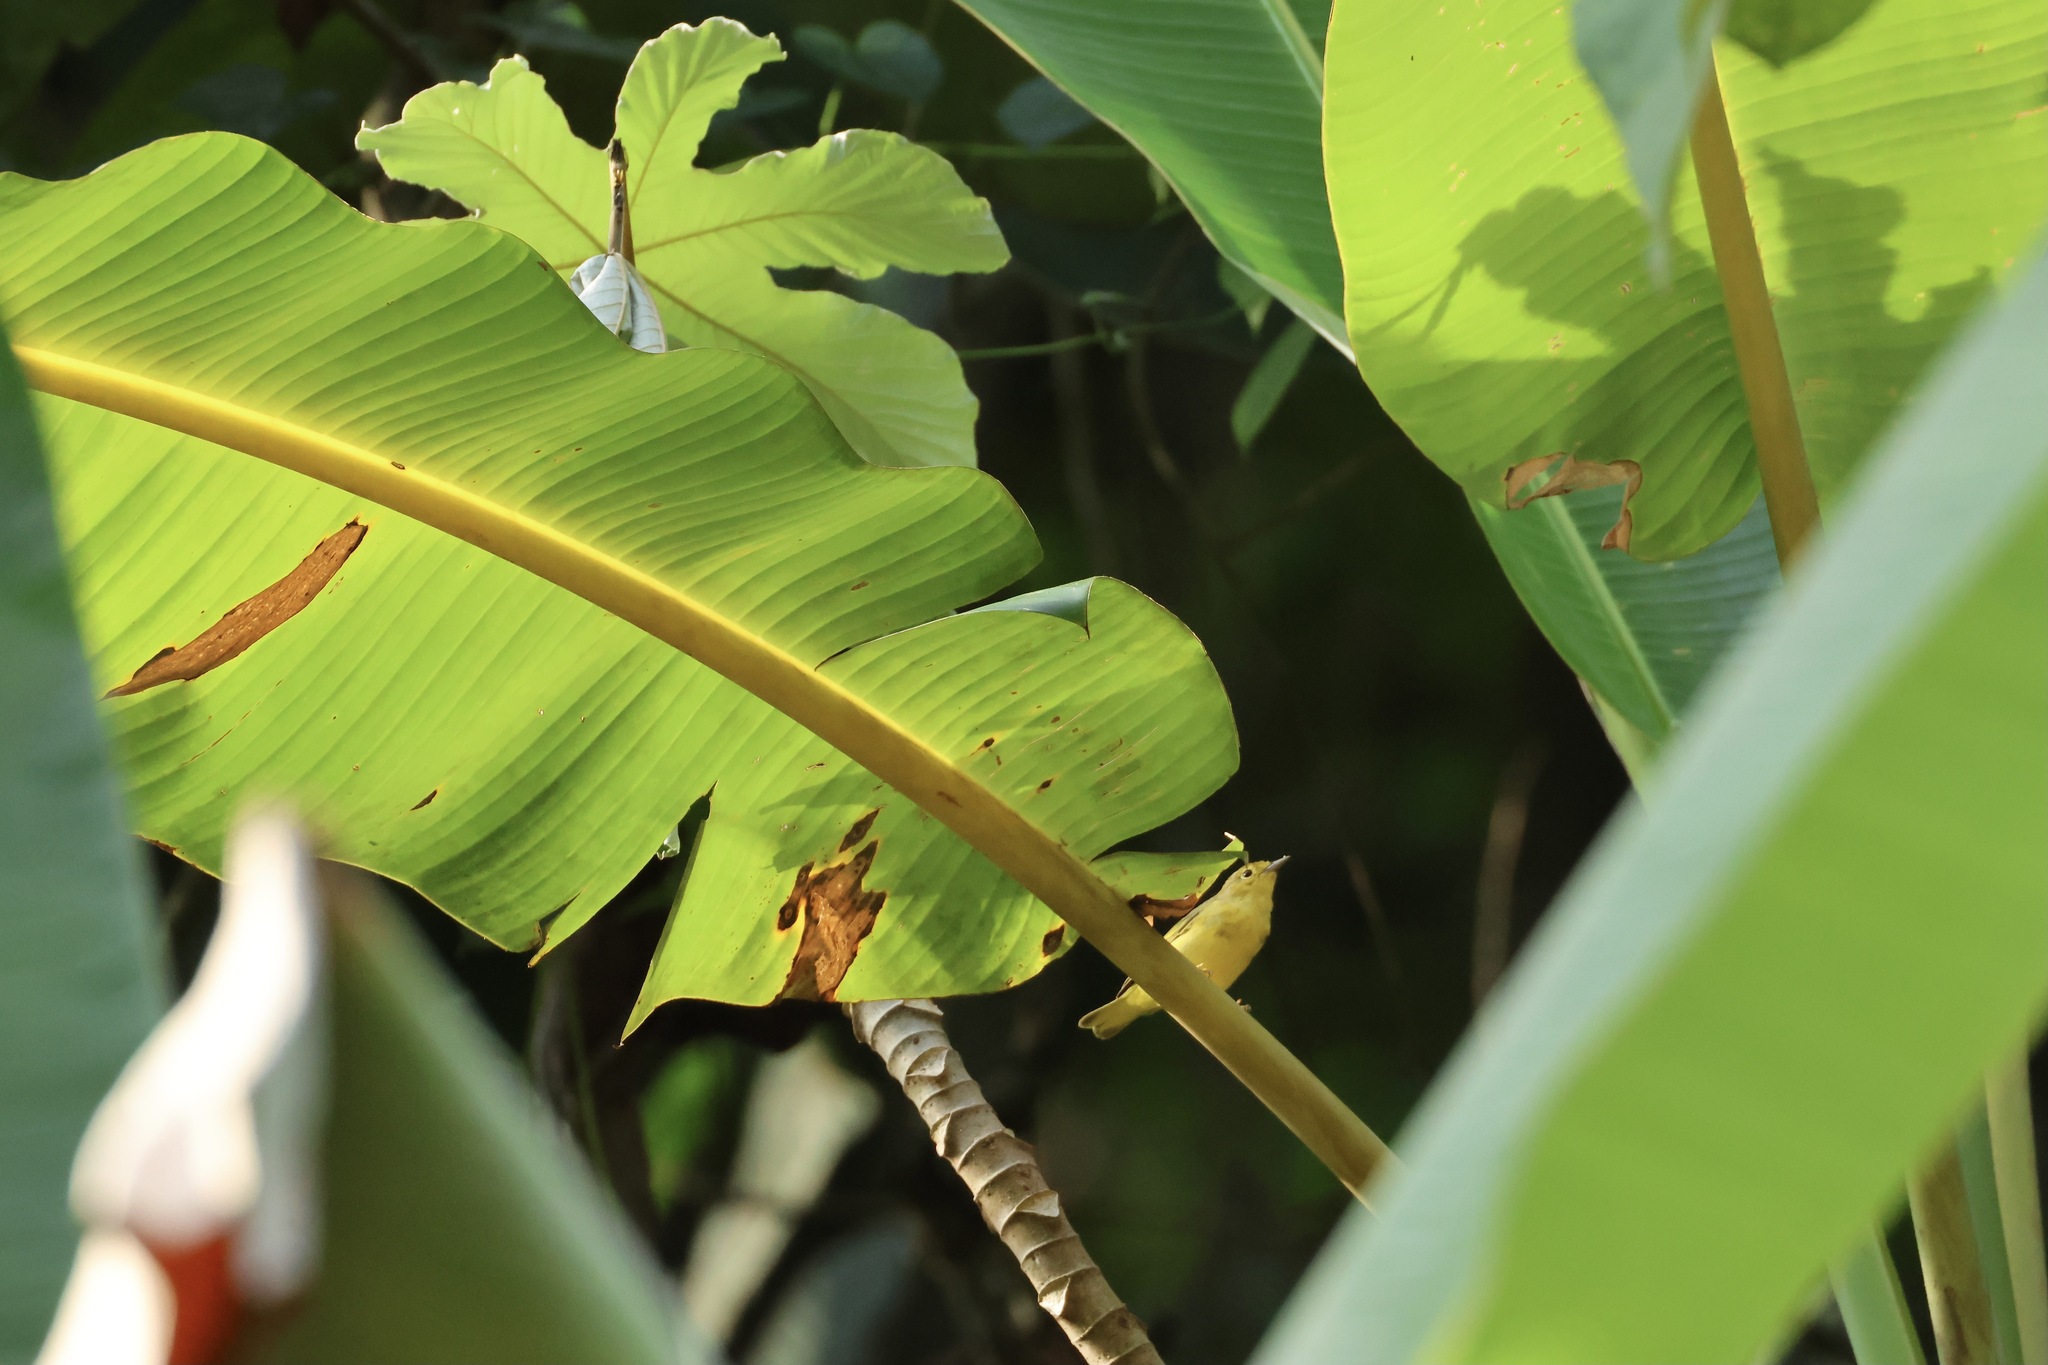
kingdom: Animalia
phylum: Chordata
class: Aves
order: Passeriformes
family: Parulidae
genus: Setophaga
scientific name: Setophaga petechia
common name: Yellow warbler
